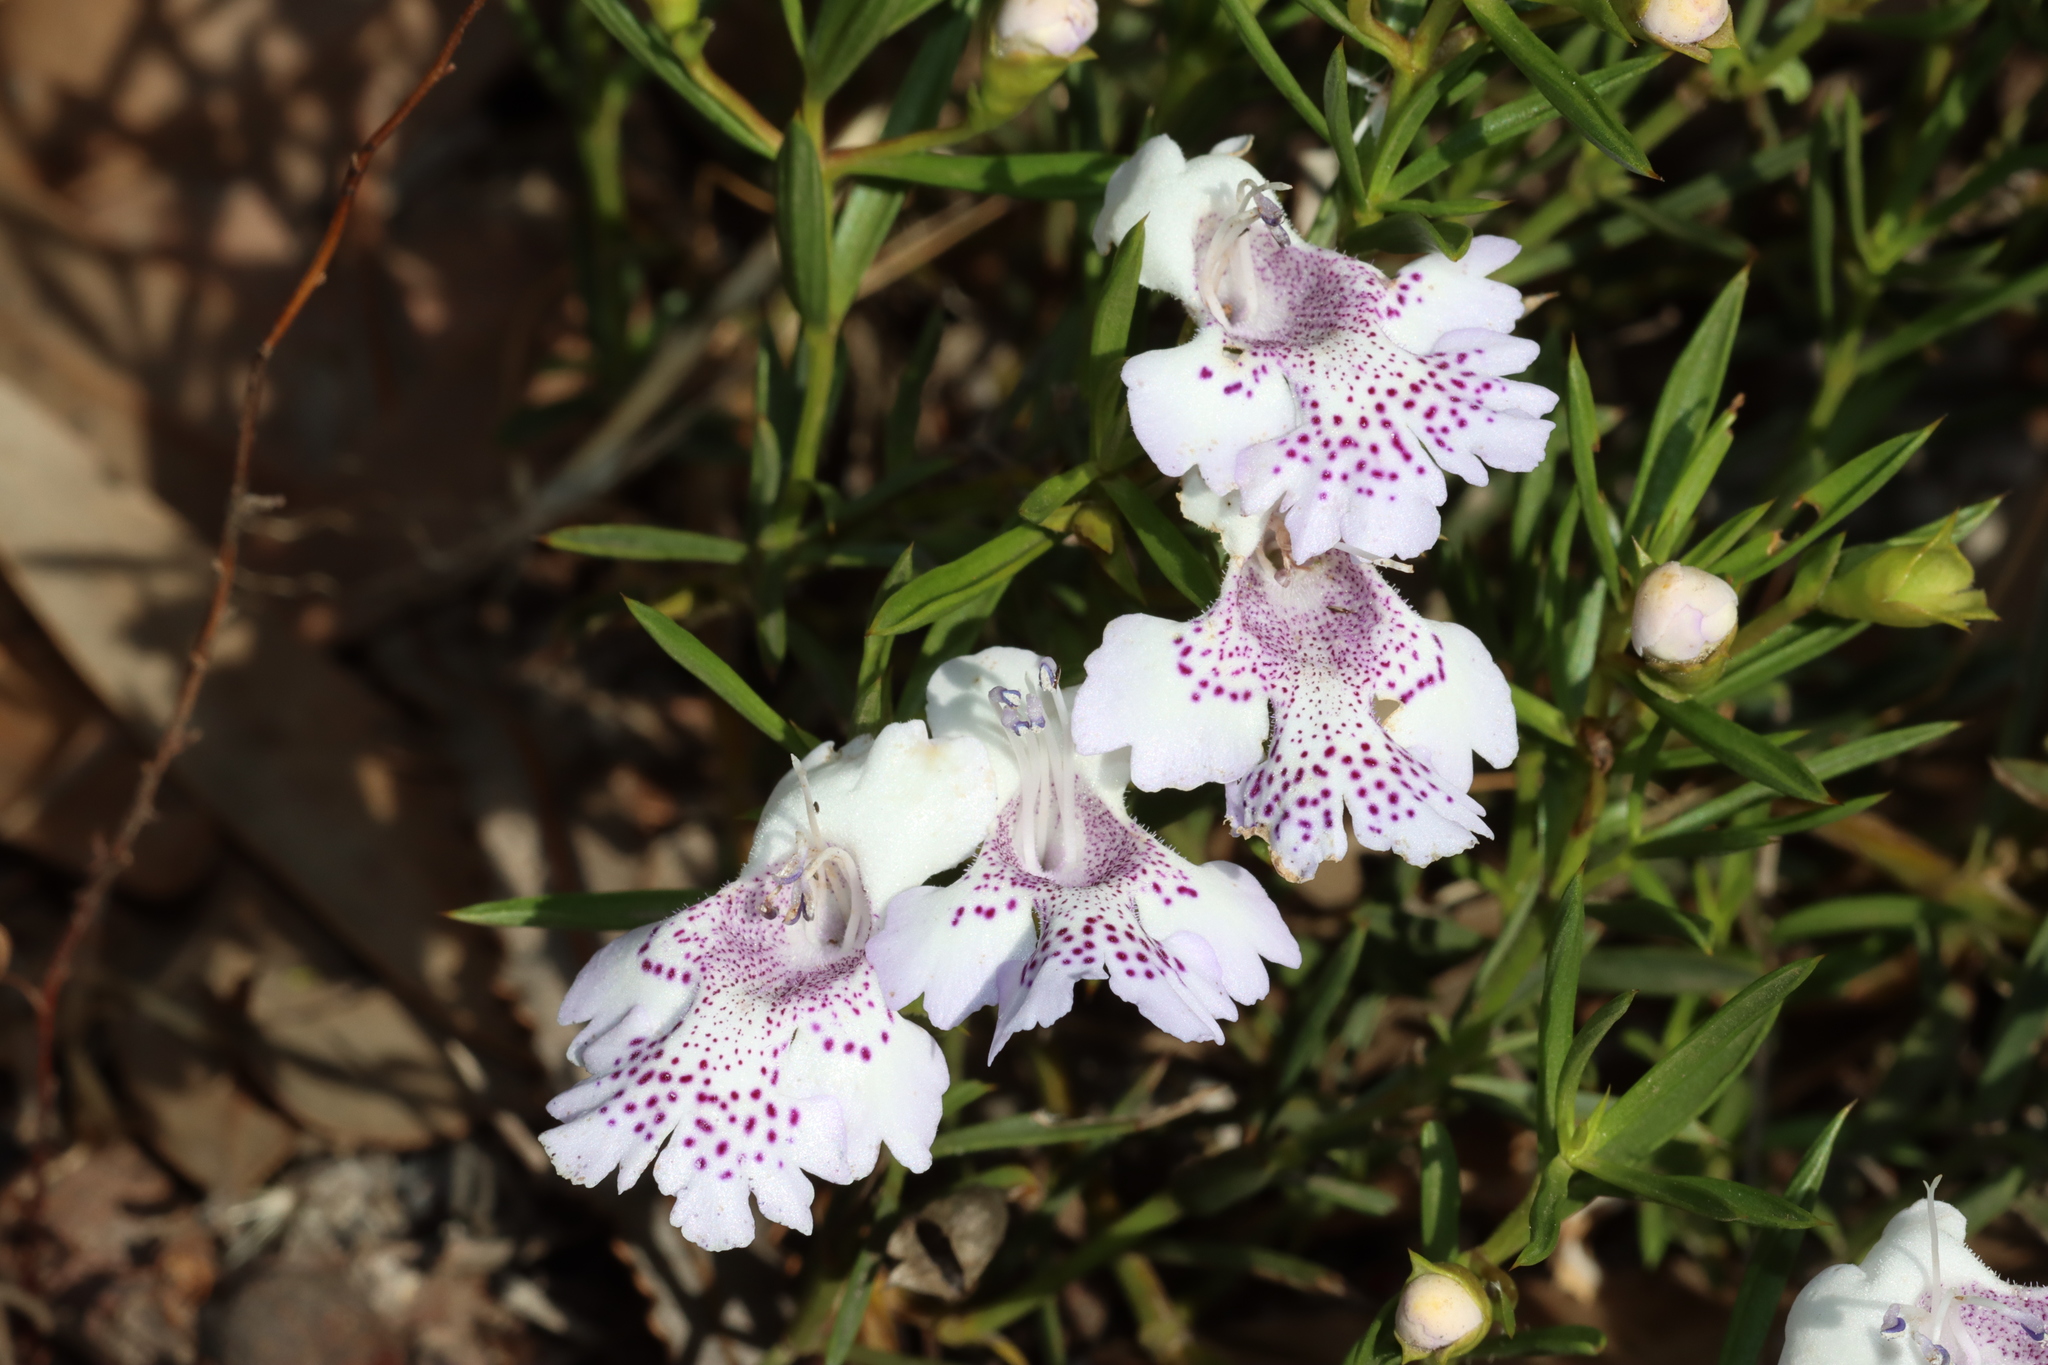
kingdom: Plantae
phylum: Tracheophyta
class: Magnoliopsida
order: Lamiales
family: Lamiaceae
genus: Hemiandra
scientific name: Hemiandra pungens
